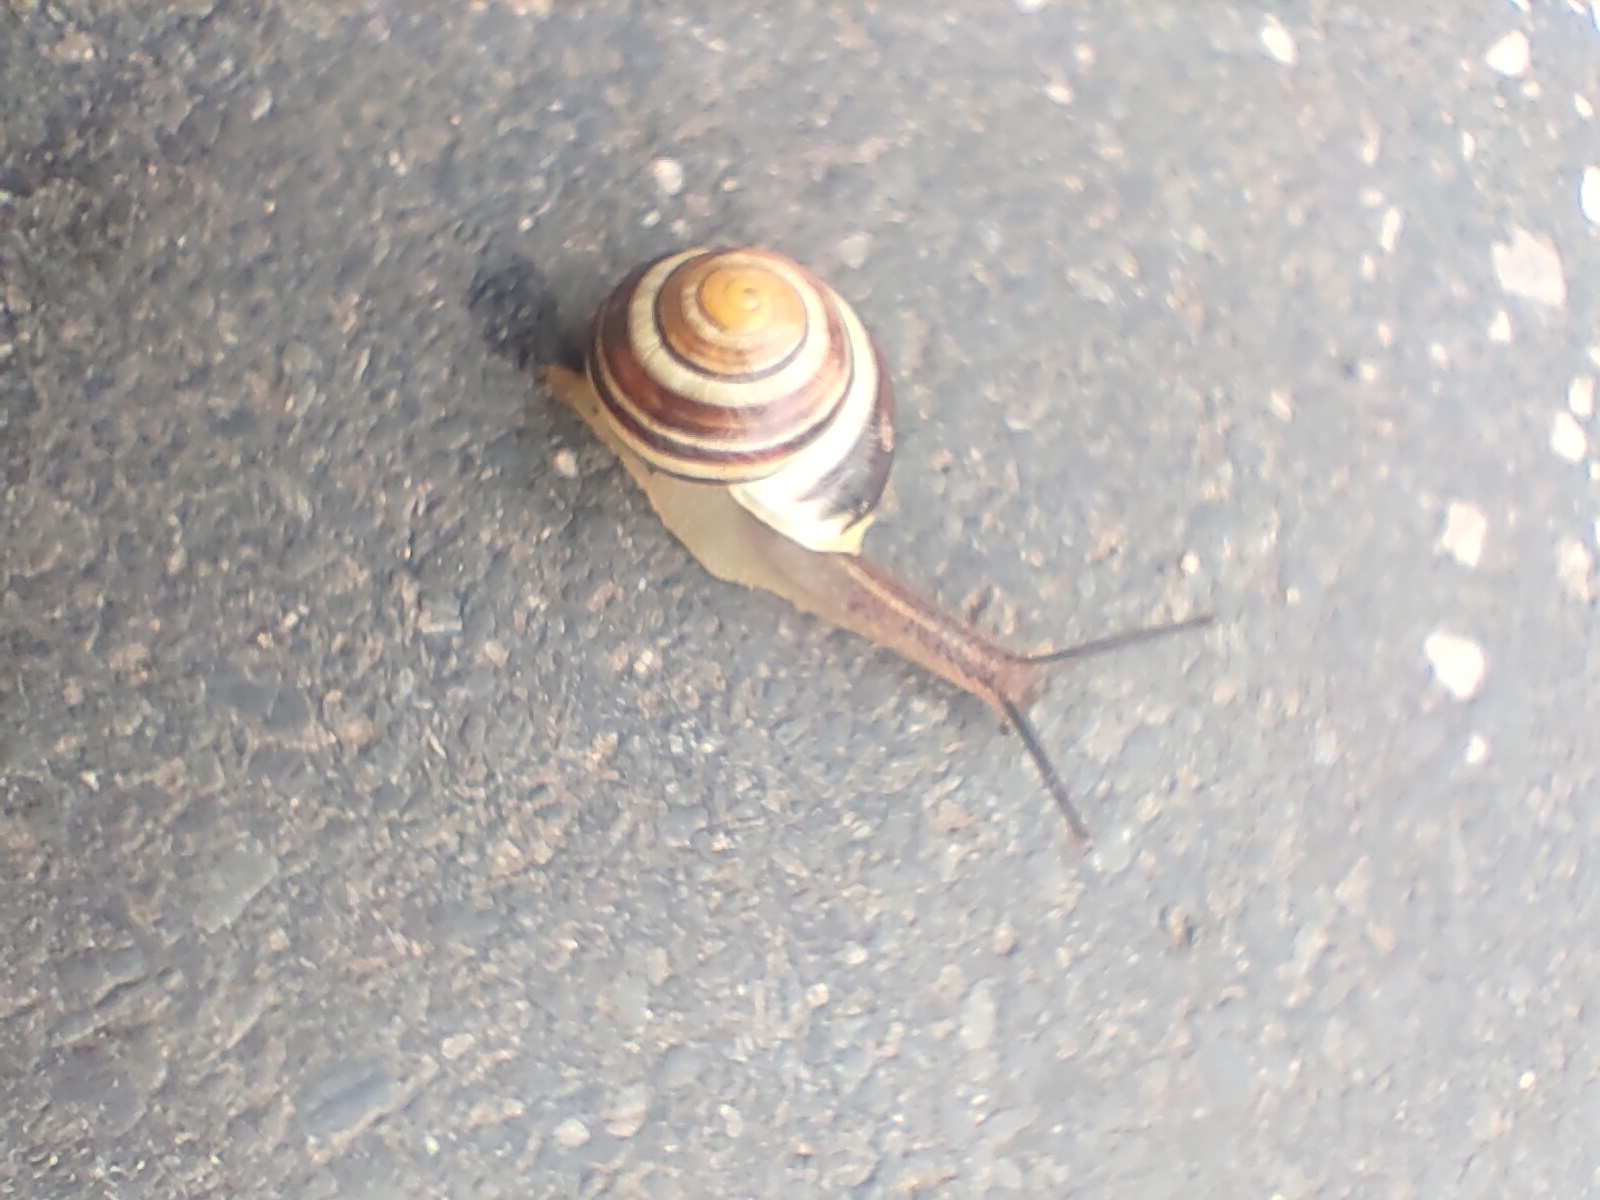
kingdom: Animalia
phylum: Mollusca
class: Gastropoda
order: Stylommatophora
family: Helicidae
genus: Cepaea
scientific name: Cepaea hortensis
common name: White-lip gardensnail
